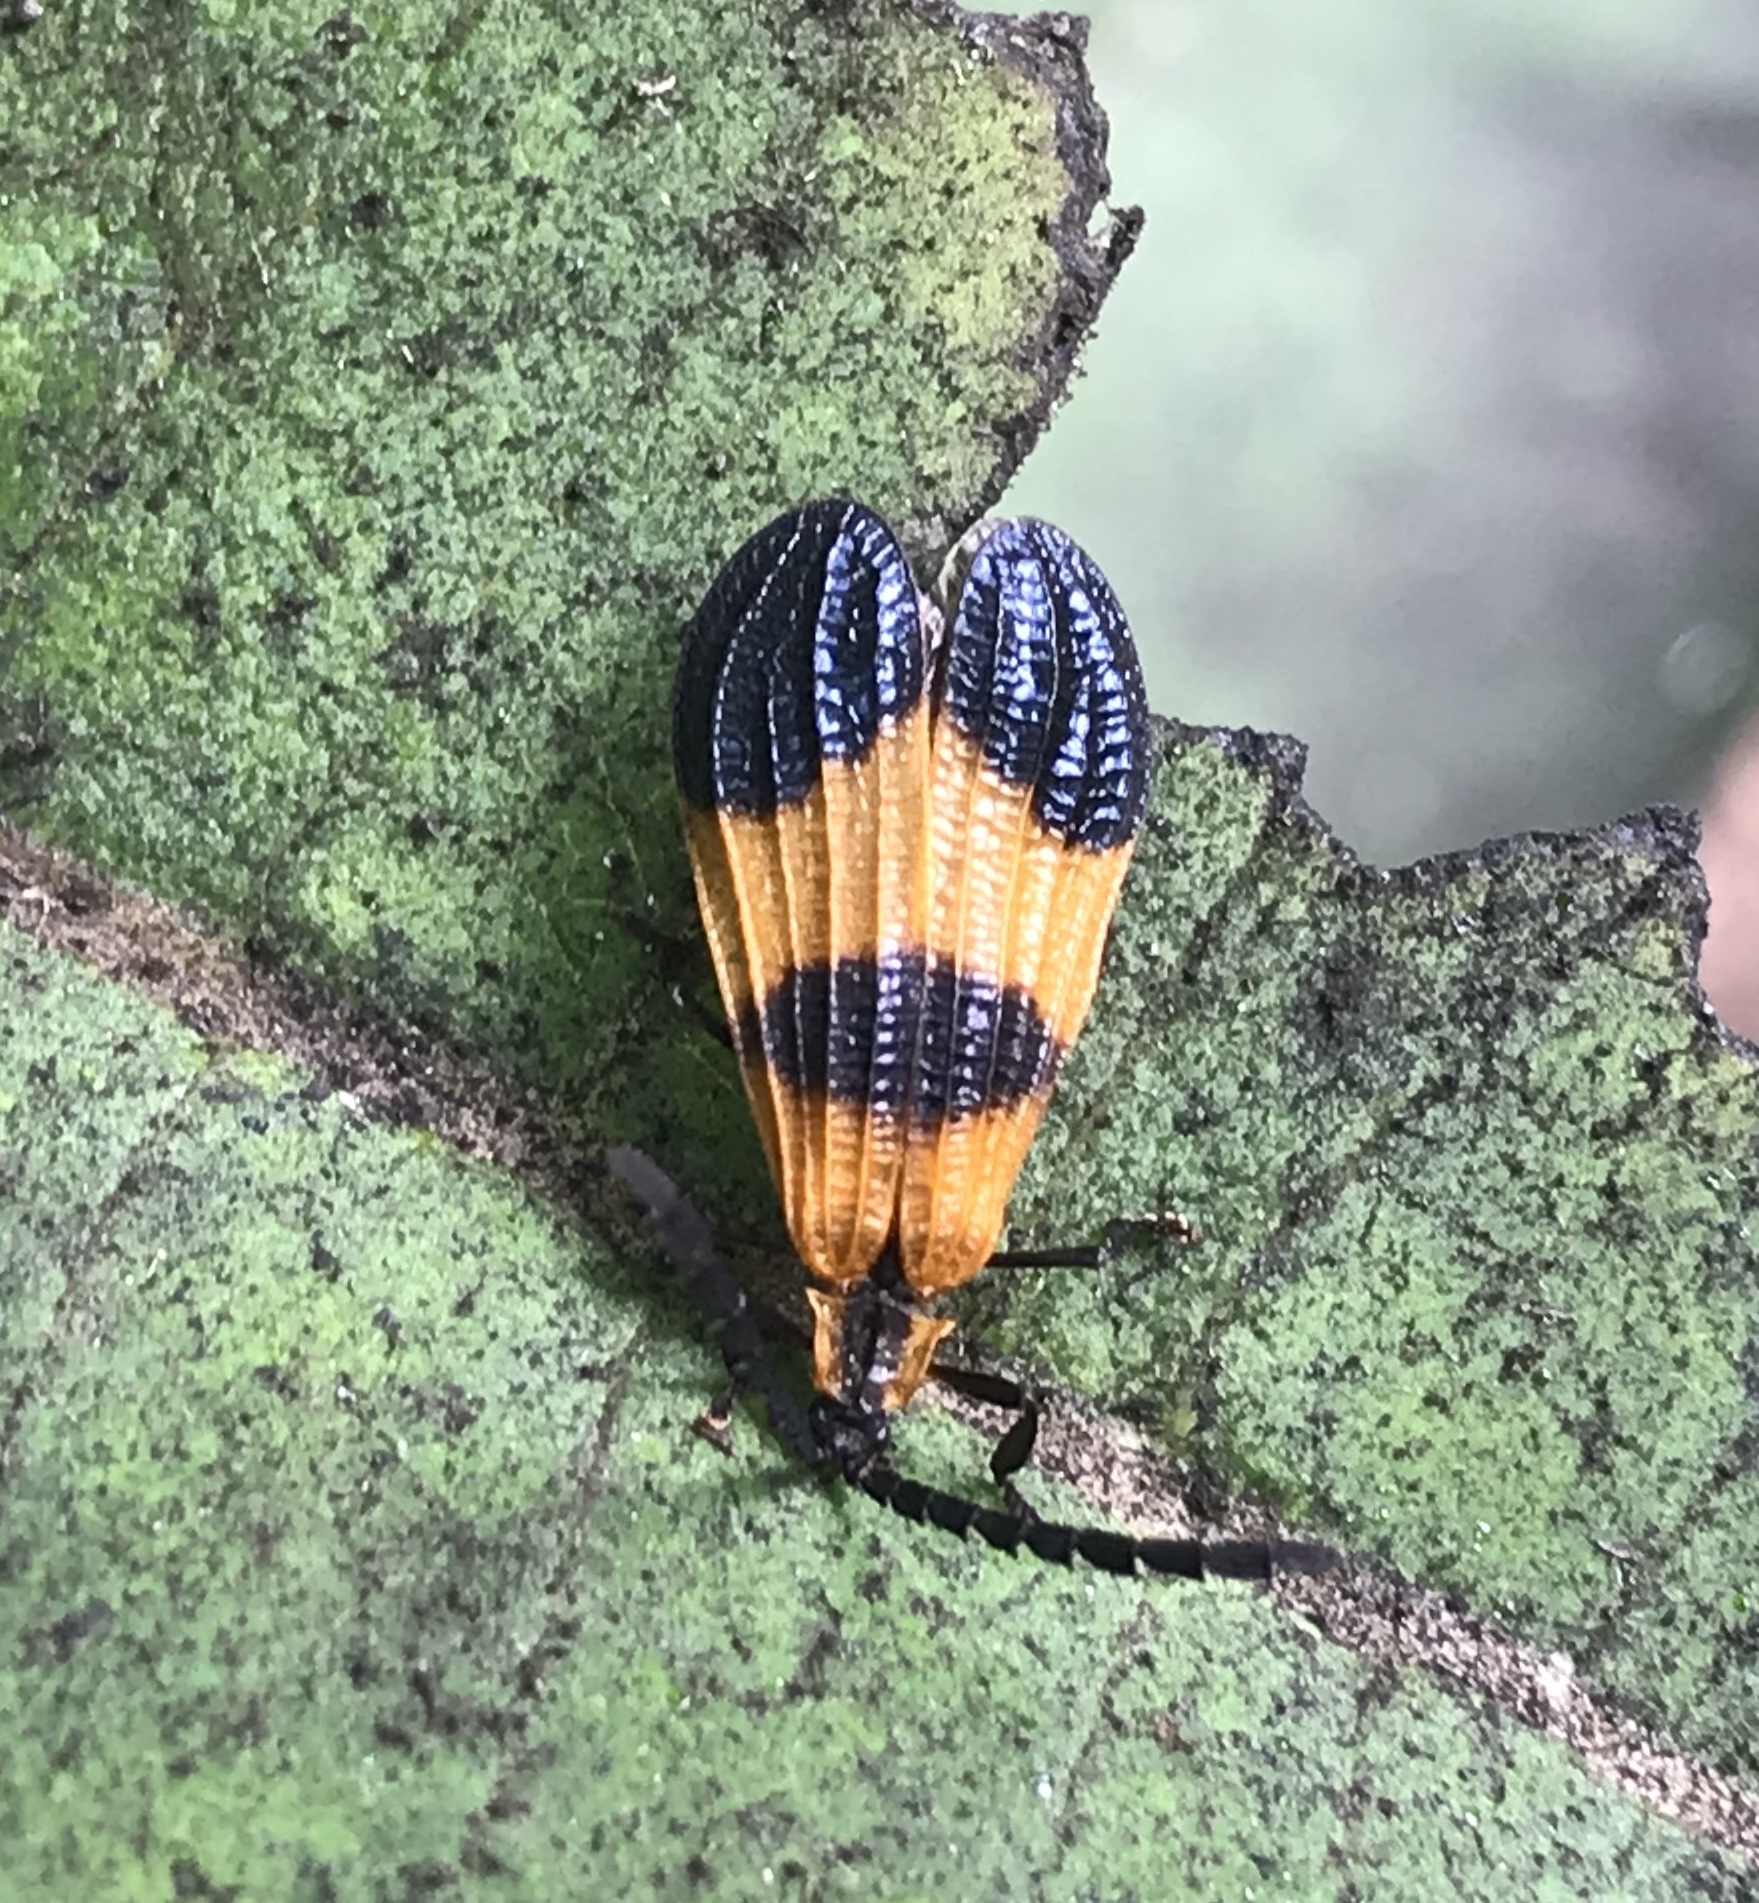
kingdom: Animalia
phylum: Arthropoda
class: Insecta
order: Coleoptera
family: Lycidae
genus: Calopteron
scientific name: Calopteron reticulatum
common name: Banded net-winged beetle
